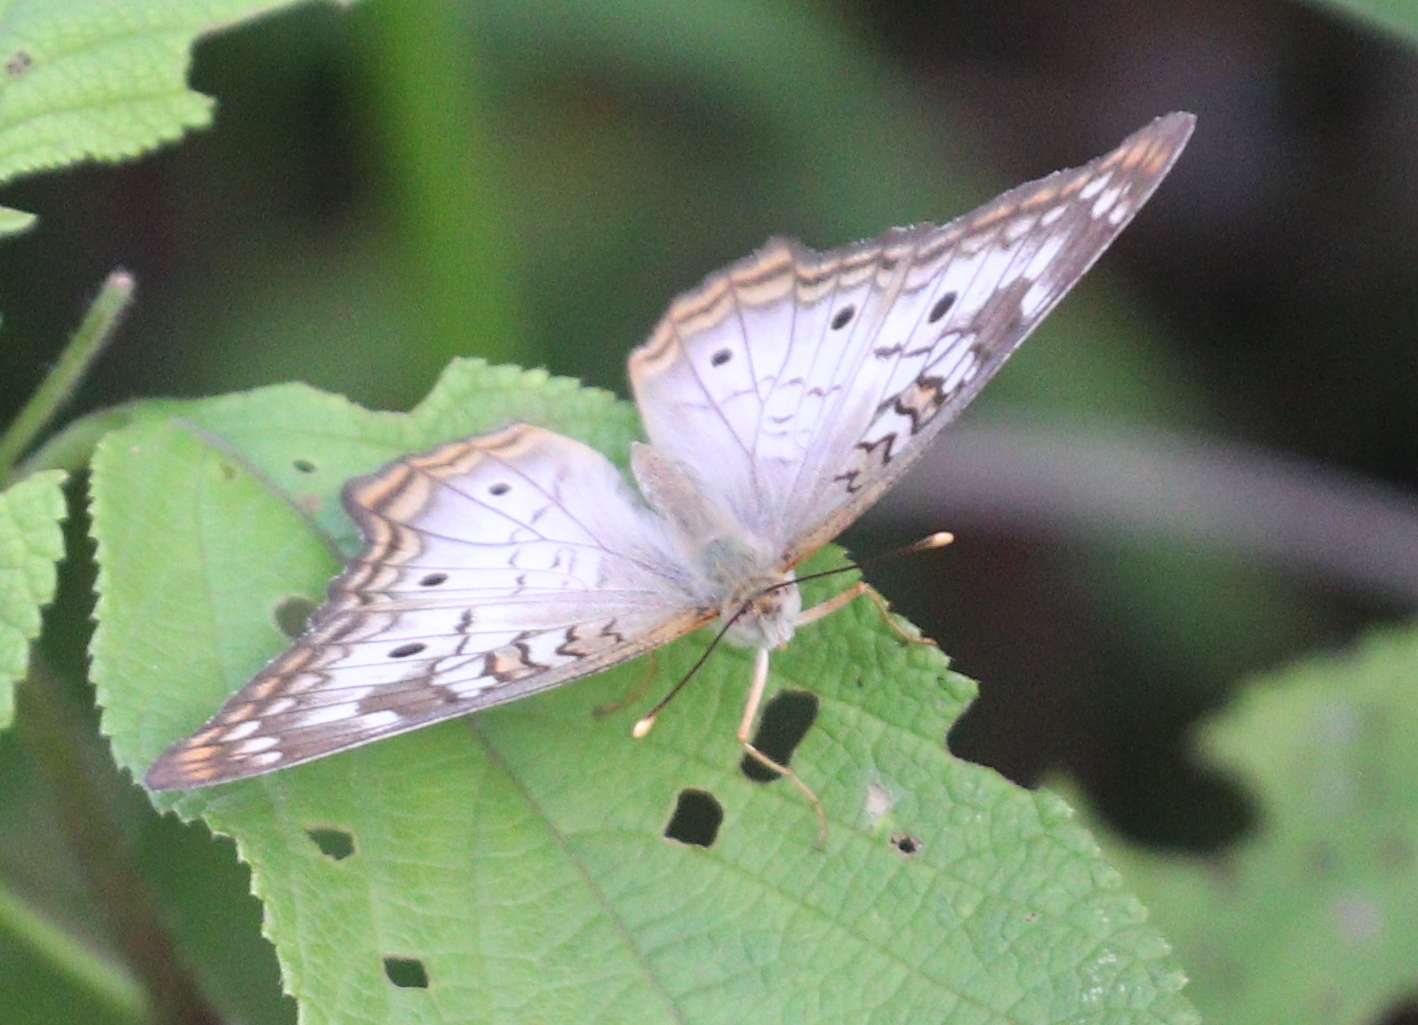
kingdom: Animalia
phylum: Arthropoda
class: Insecta
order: Lepidoptera
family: Nymphalidae
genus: Anartia
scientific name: Anartia jatrophae
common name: White peacock
